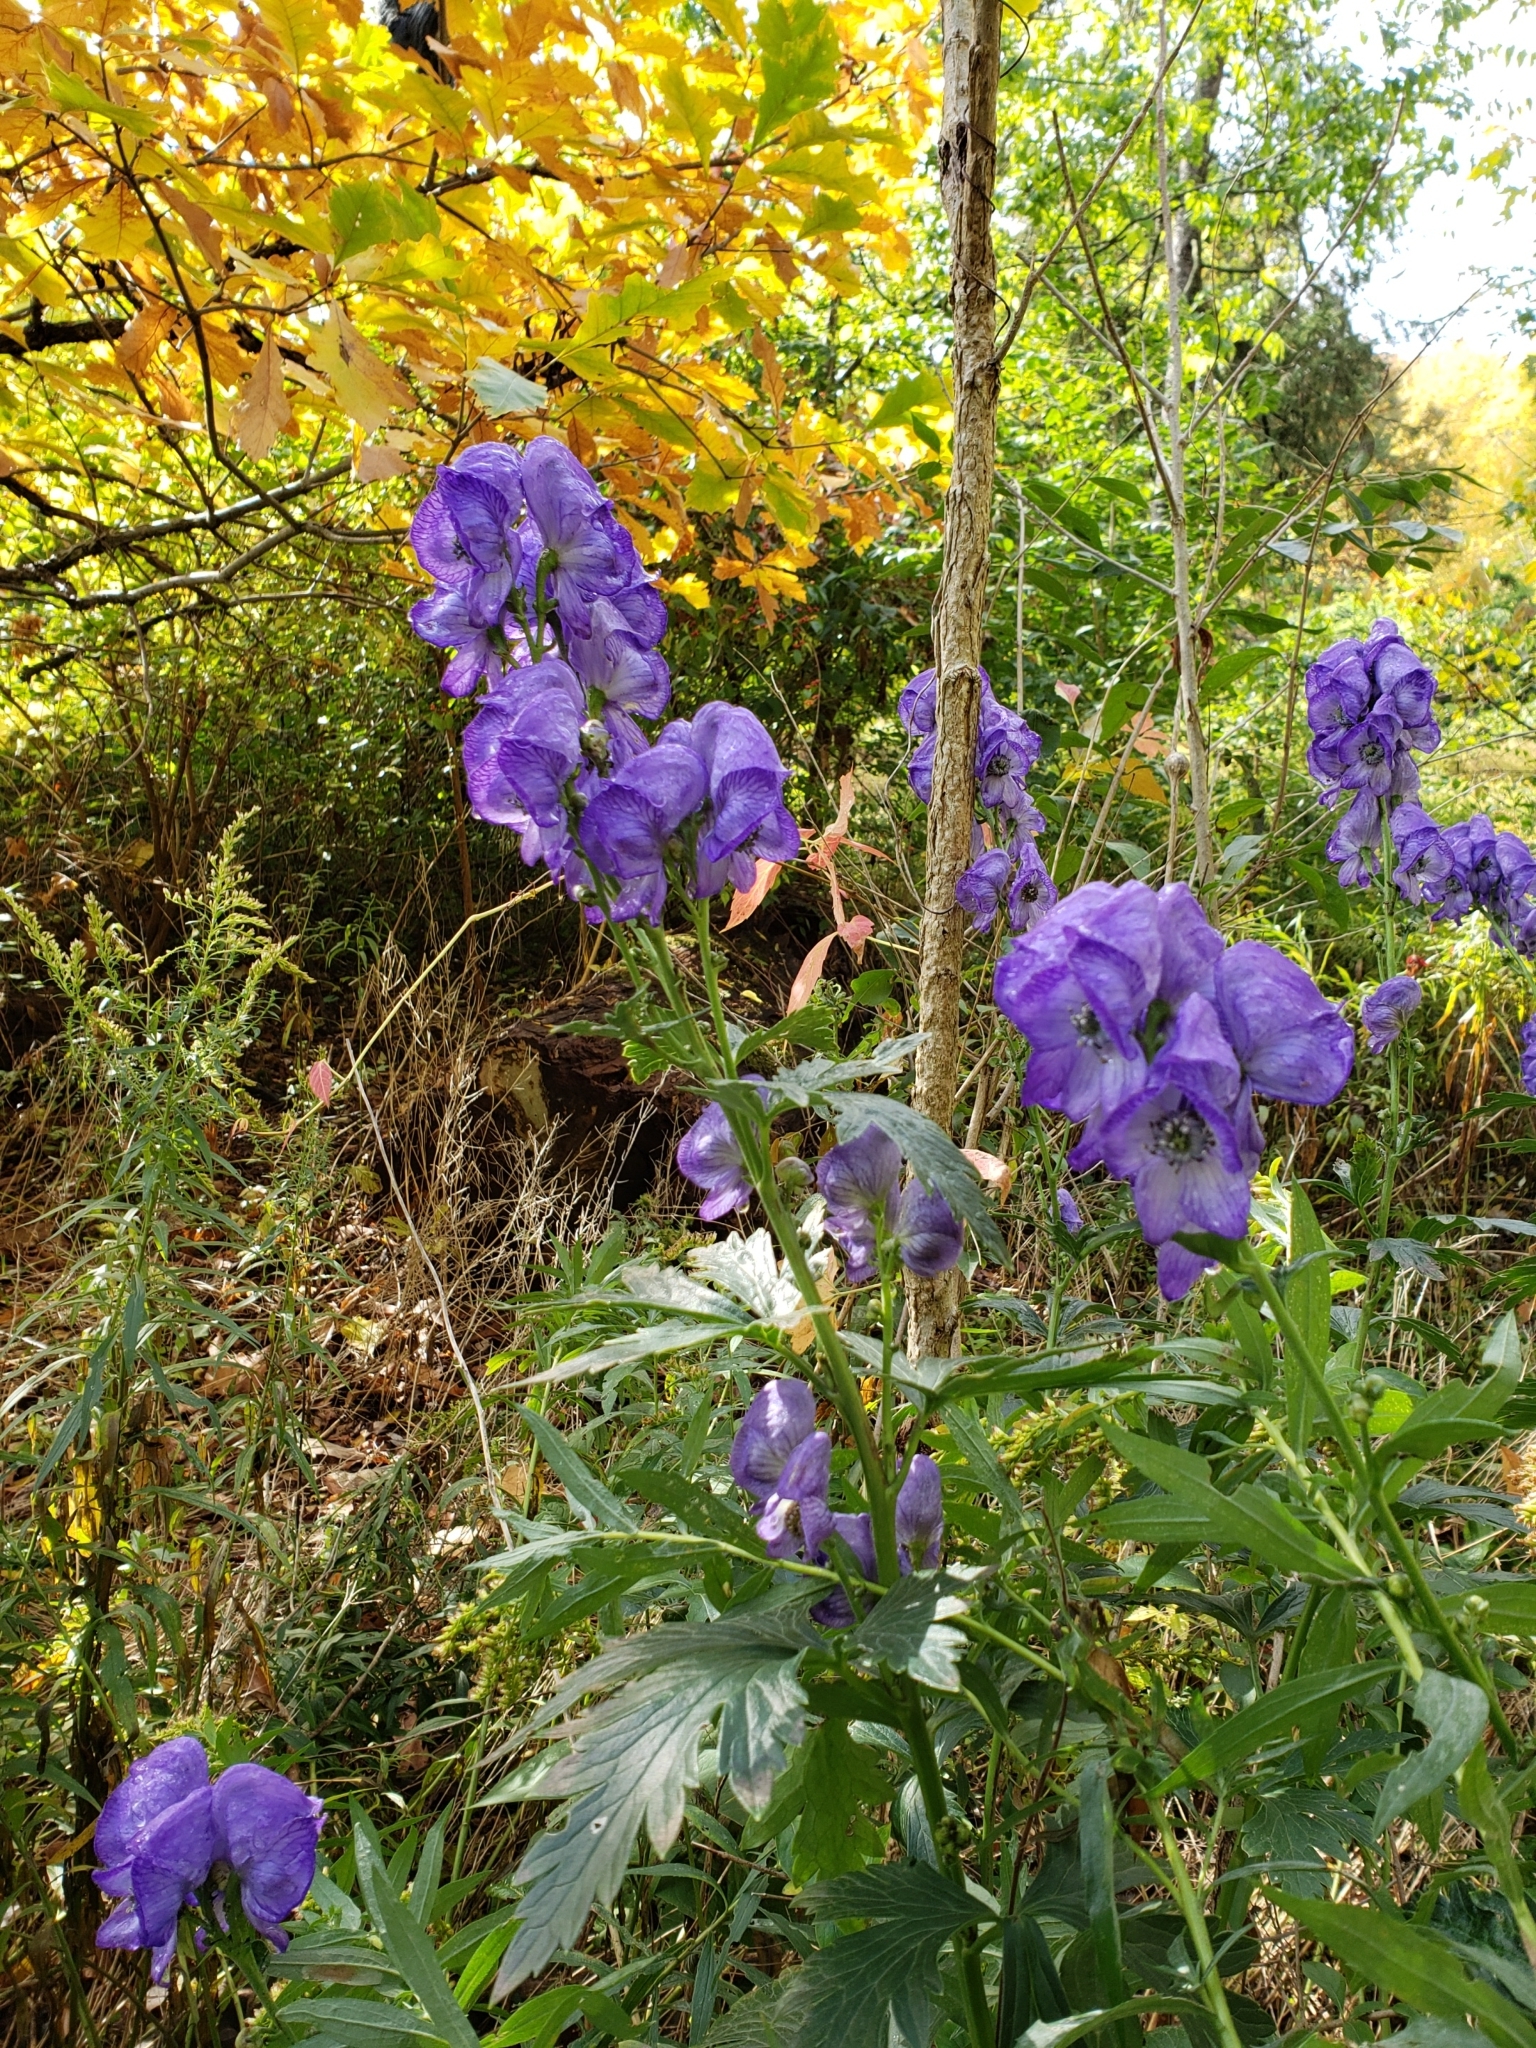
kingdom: Plantae
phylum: Tracheophyta
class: Magnoliopsida
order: Ranunculales
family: Ranunculaceae
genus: Aconitum
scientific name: Aconitum napellus
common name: Garden monkshood
